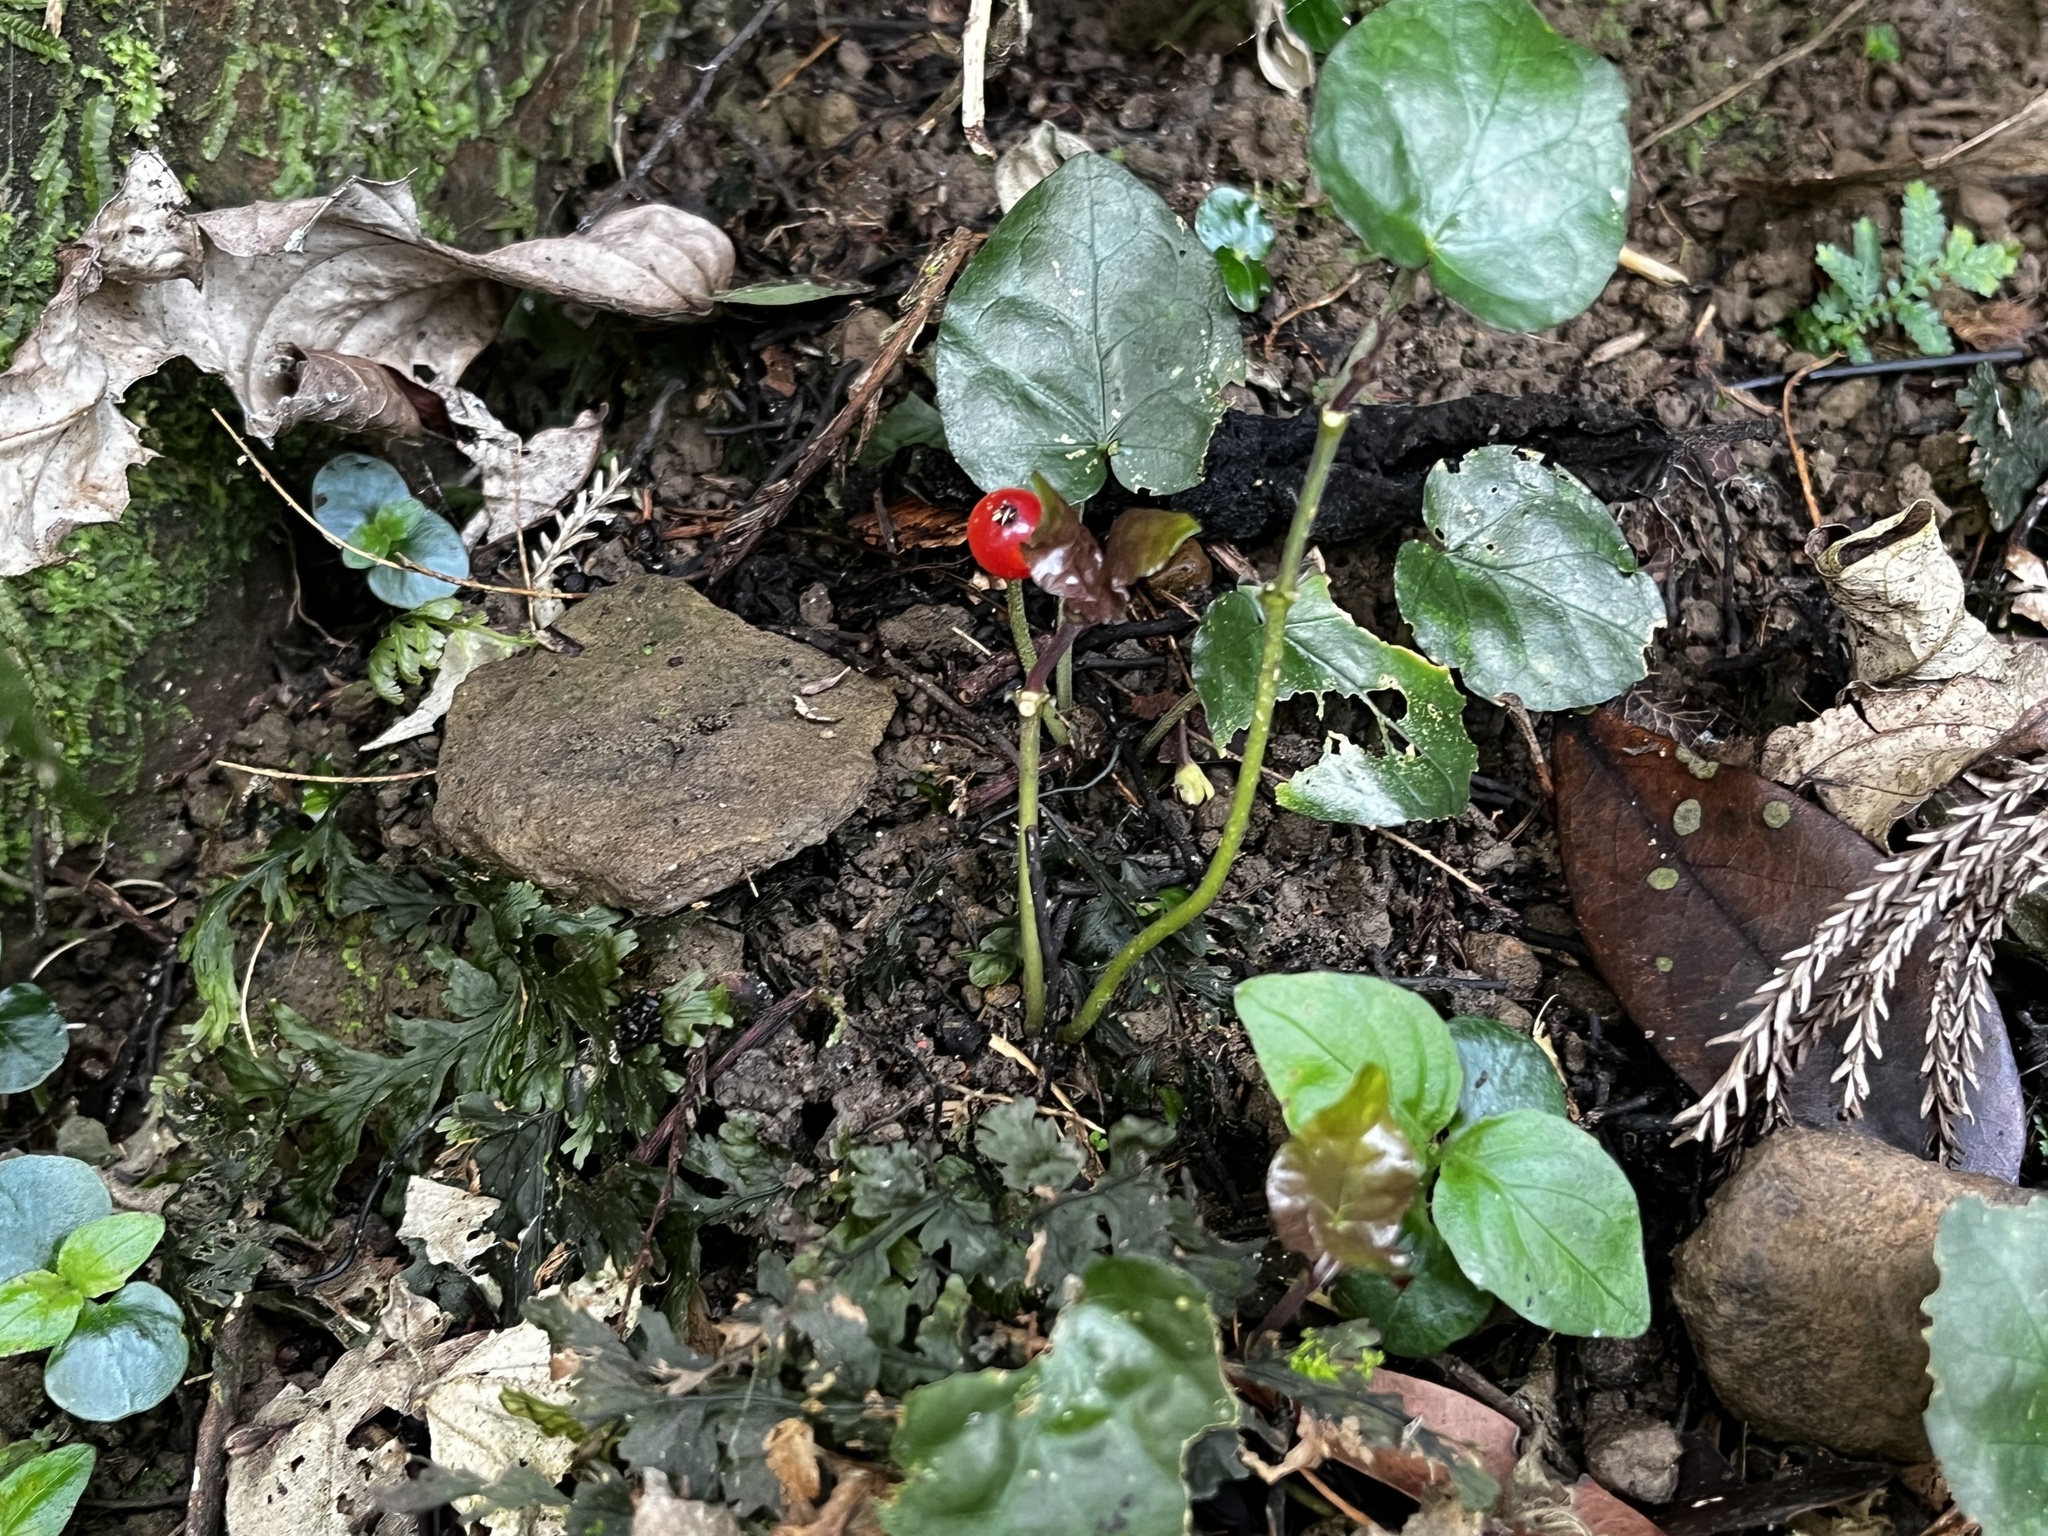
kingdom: Plantae
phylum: Tracheophyta
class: Magnoliopsida
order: Gentianales
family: Rubiaceae
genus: Geophila
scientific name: Geophila herbacea
